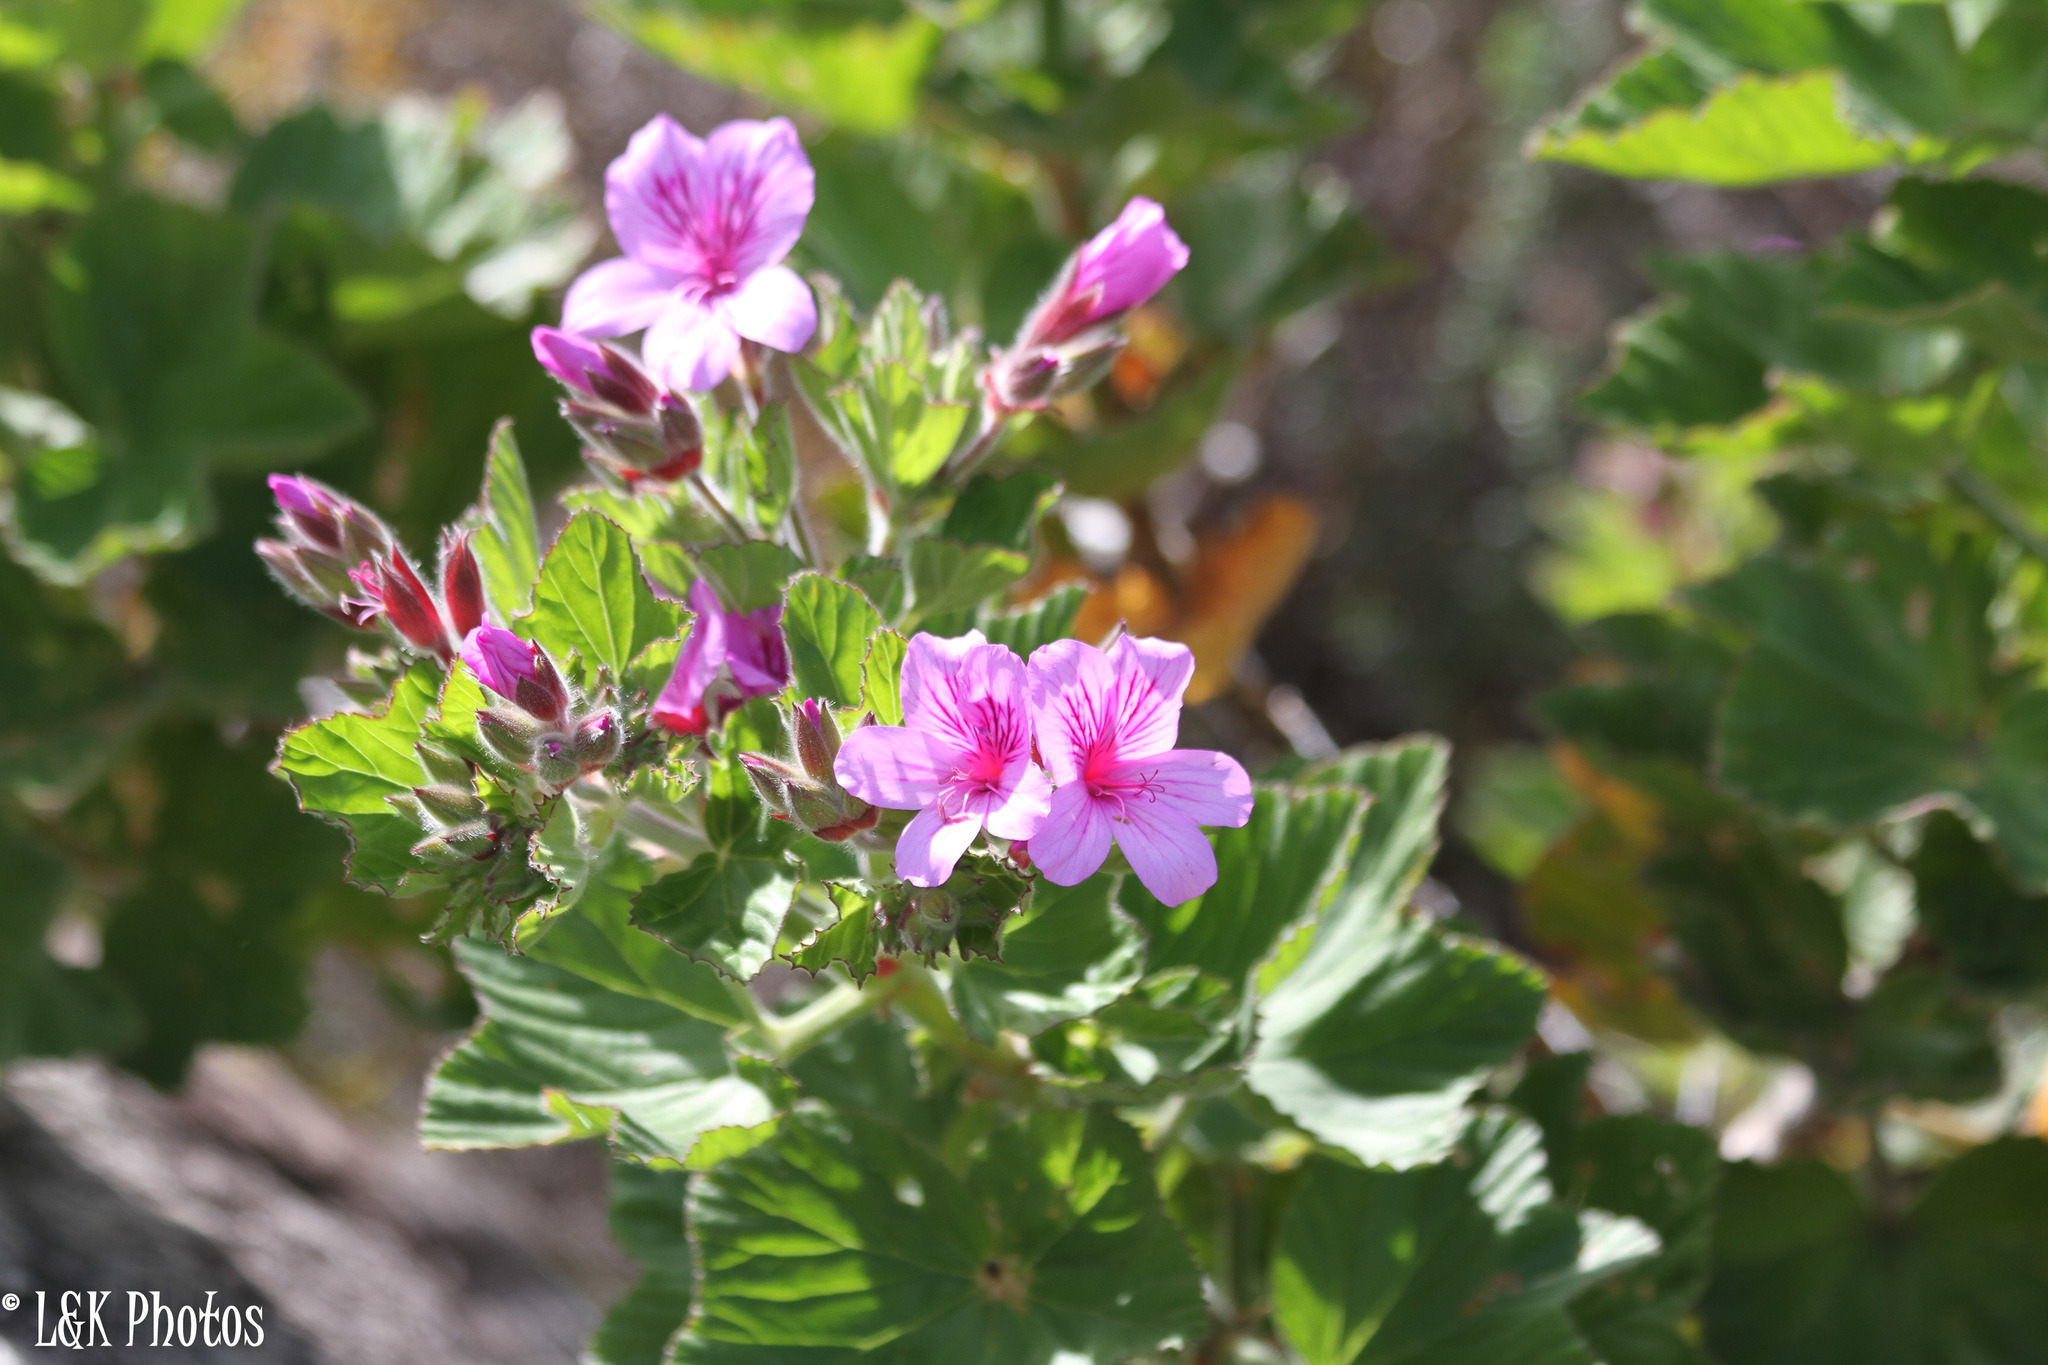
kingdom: Plantae
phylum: Tracheophyta
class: Magnoliopsida
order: Geraniales
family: Geraniaceae
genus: Pelargonium
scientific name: Pelargonium cucullatum
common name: Tree pelargonium
